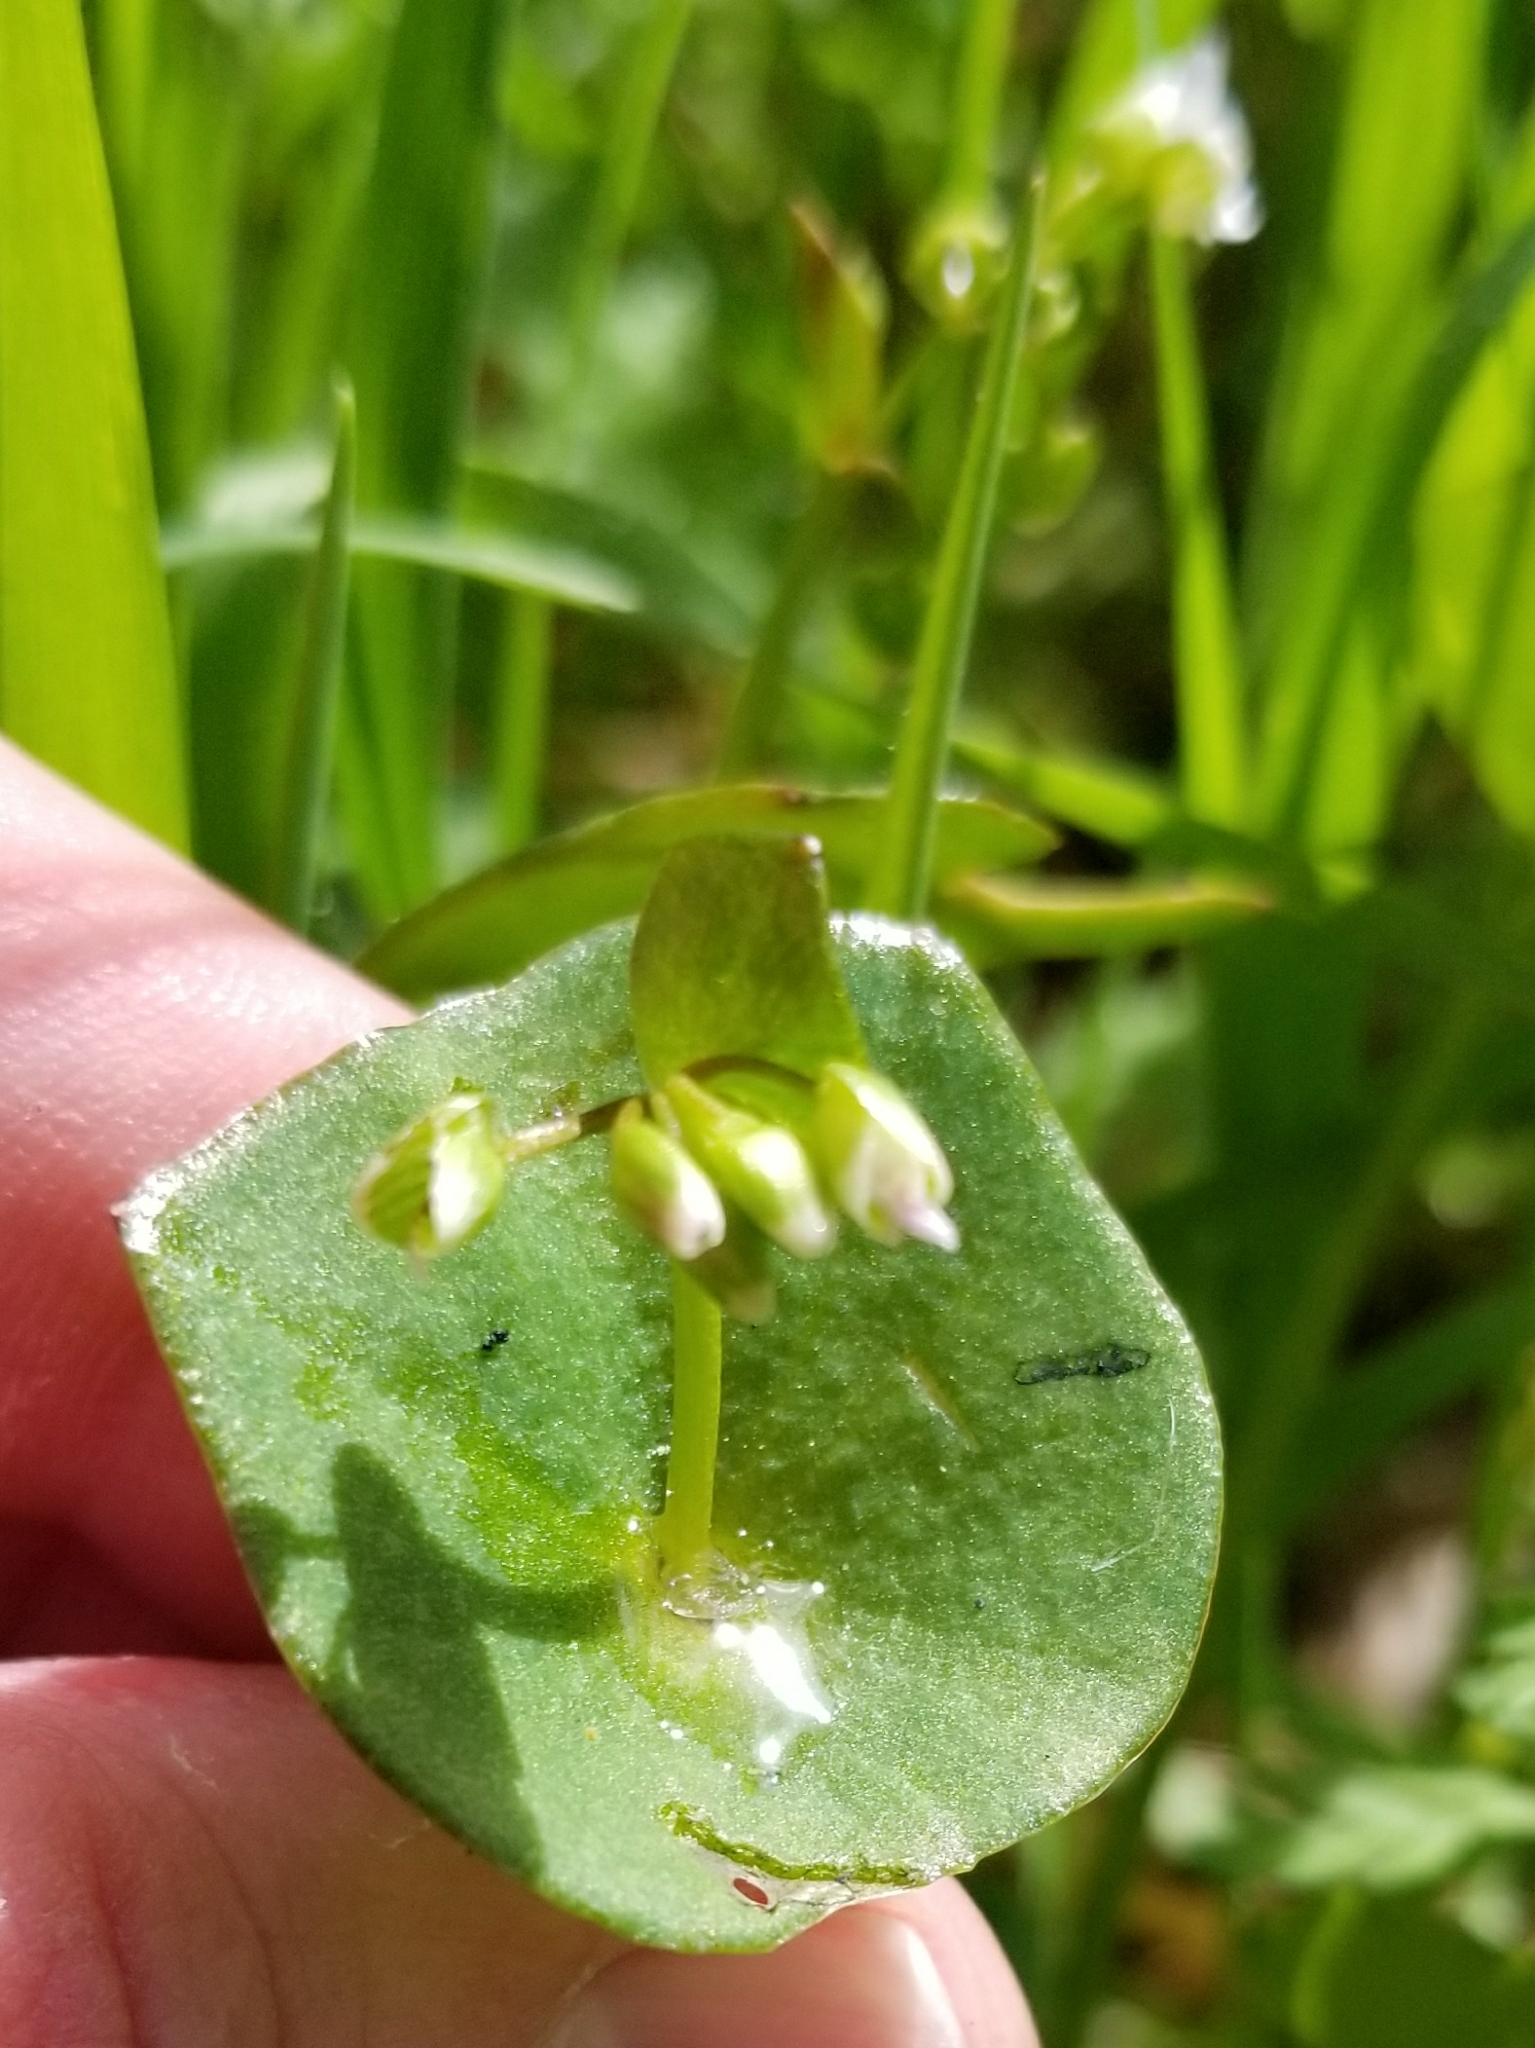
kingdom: Plantae
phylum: Tracheophyta
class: Magnoliopsida
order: Caryophyllales
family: Montiaceae
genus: Claytonia
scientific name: Claytonia perfoliata
